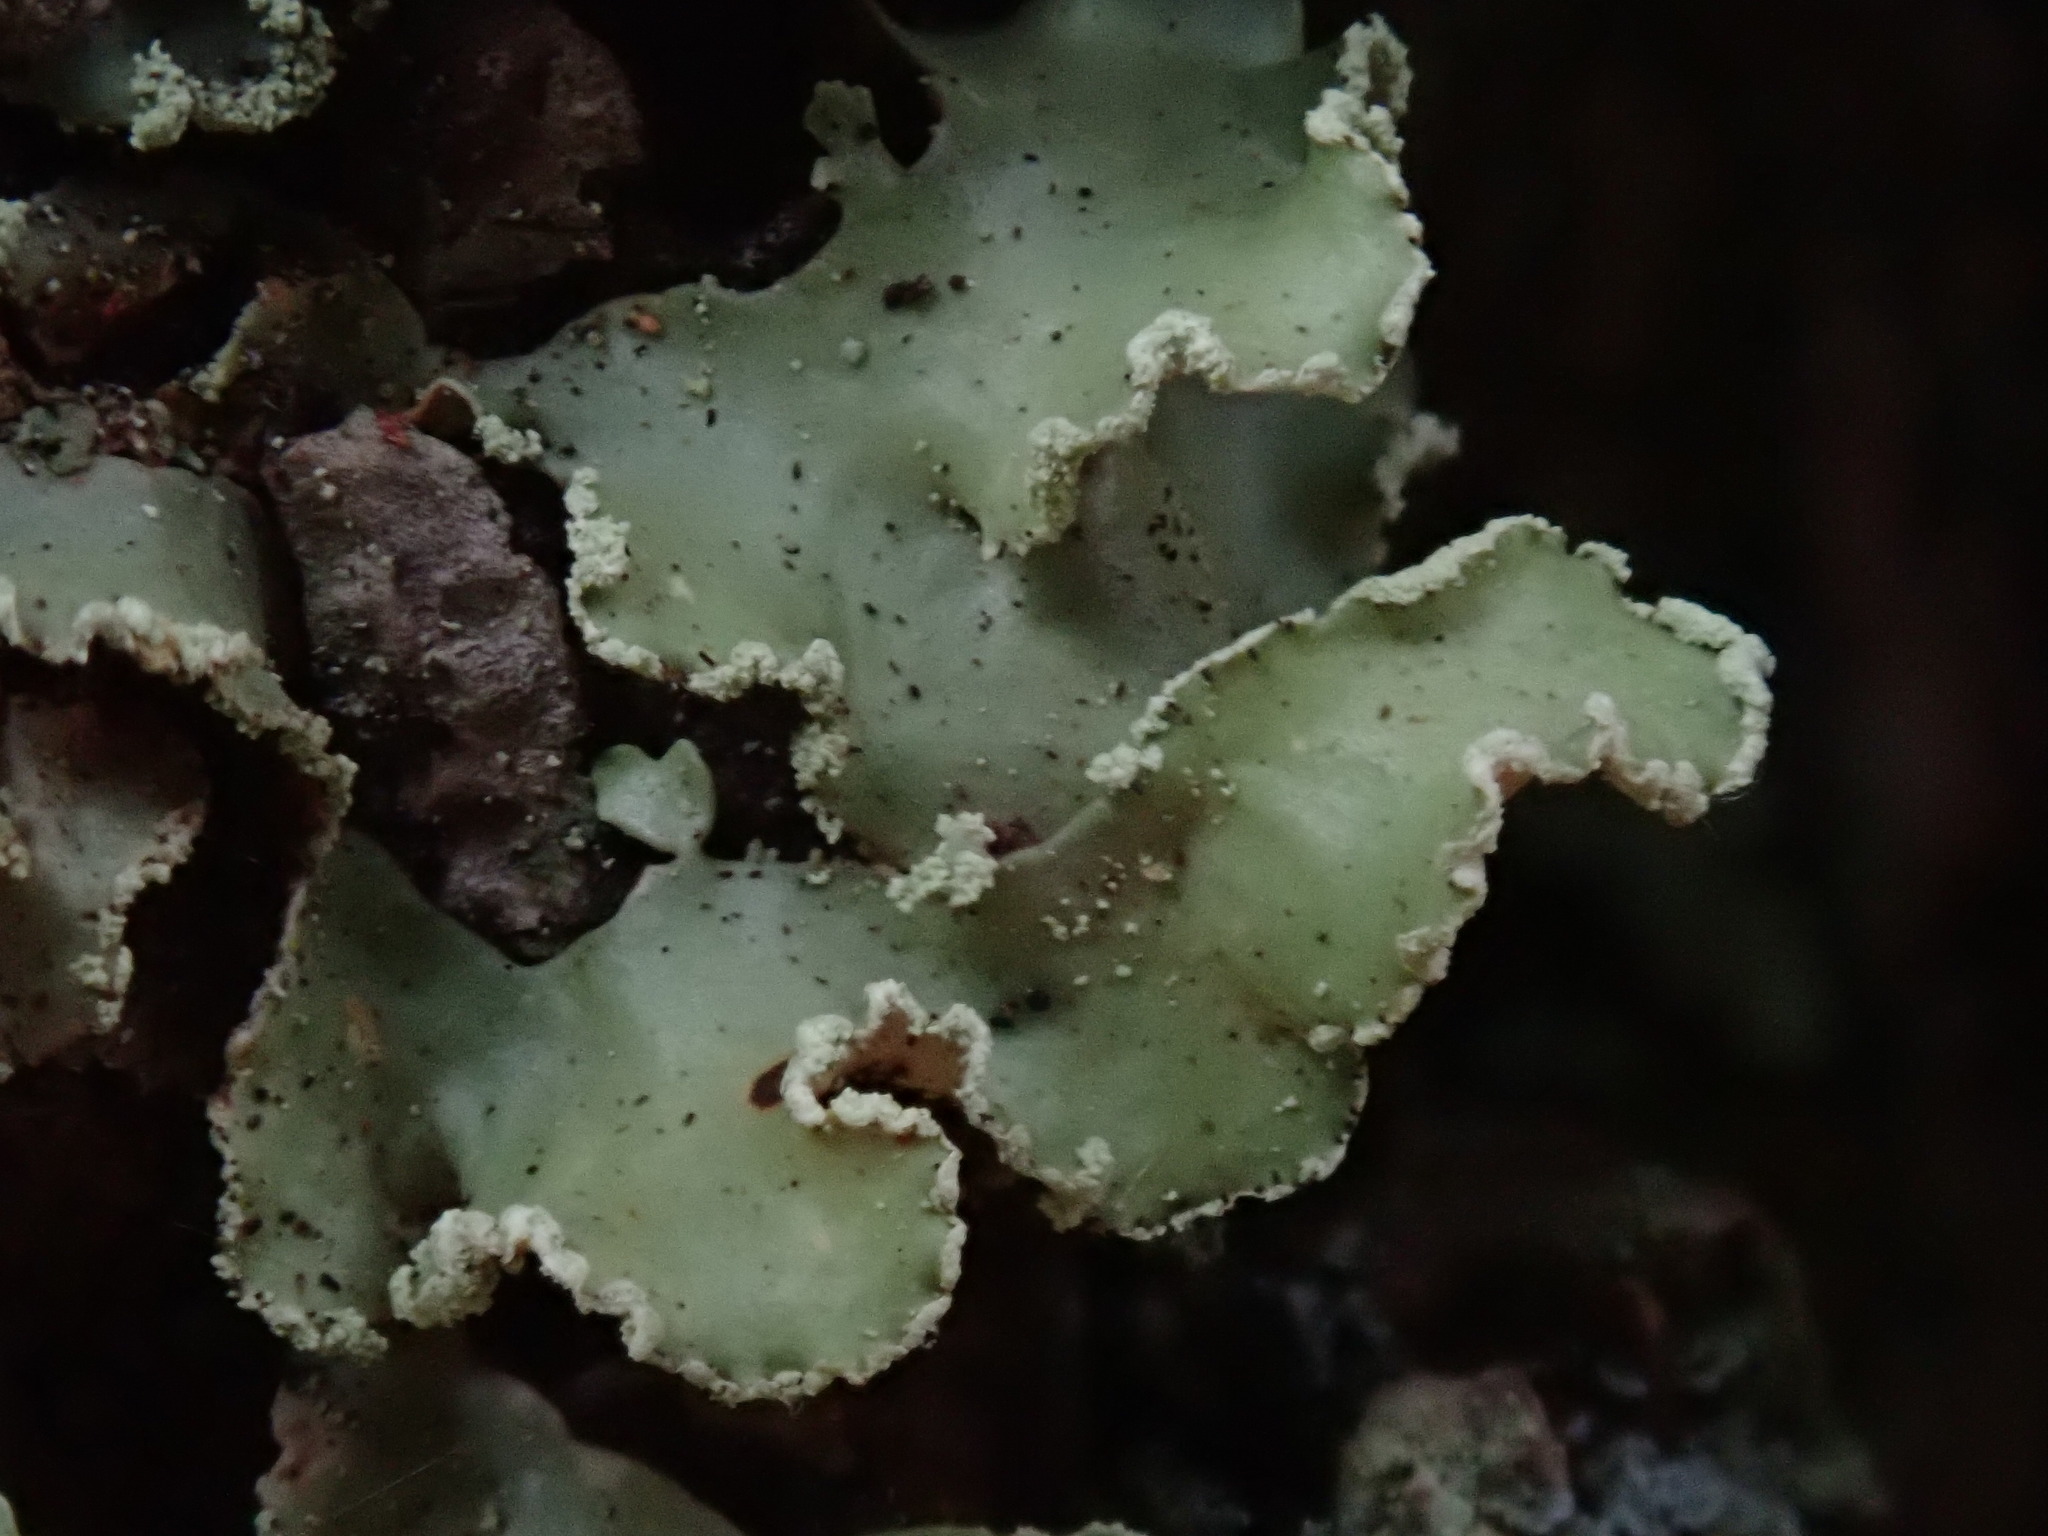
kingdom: Fungi
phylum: Ascomycota
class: Lecanoromycetes
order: Lecanorales
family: Parmeliaceae
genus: Usnocetraria
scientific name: Usnocetraria oakesiana
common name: Yellow ribbon lichen
